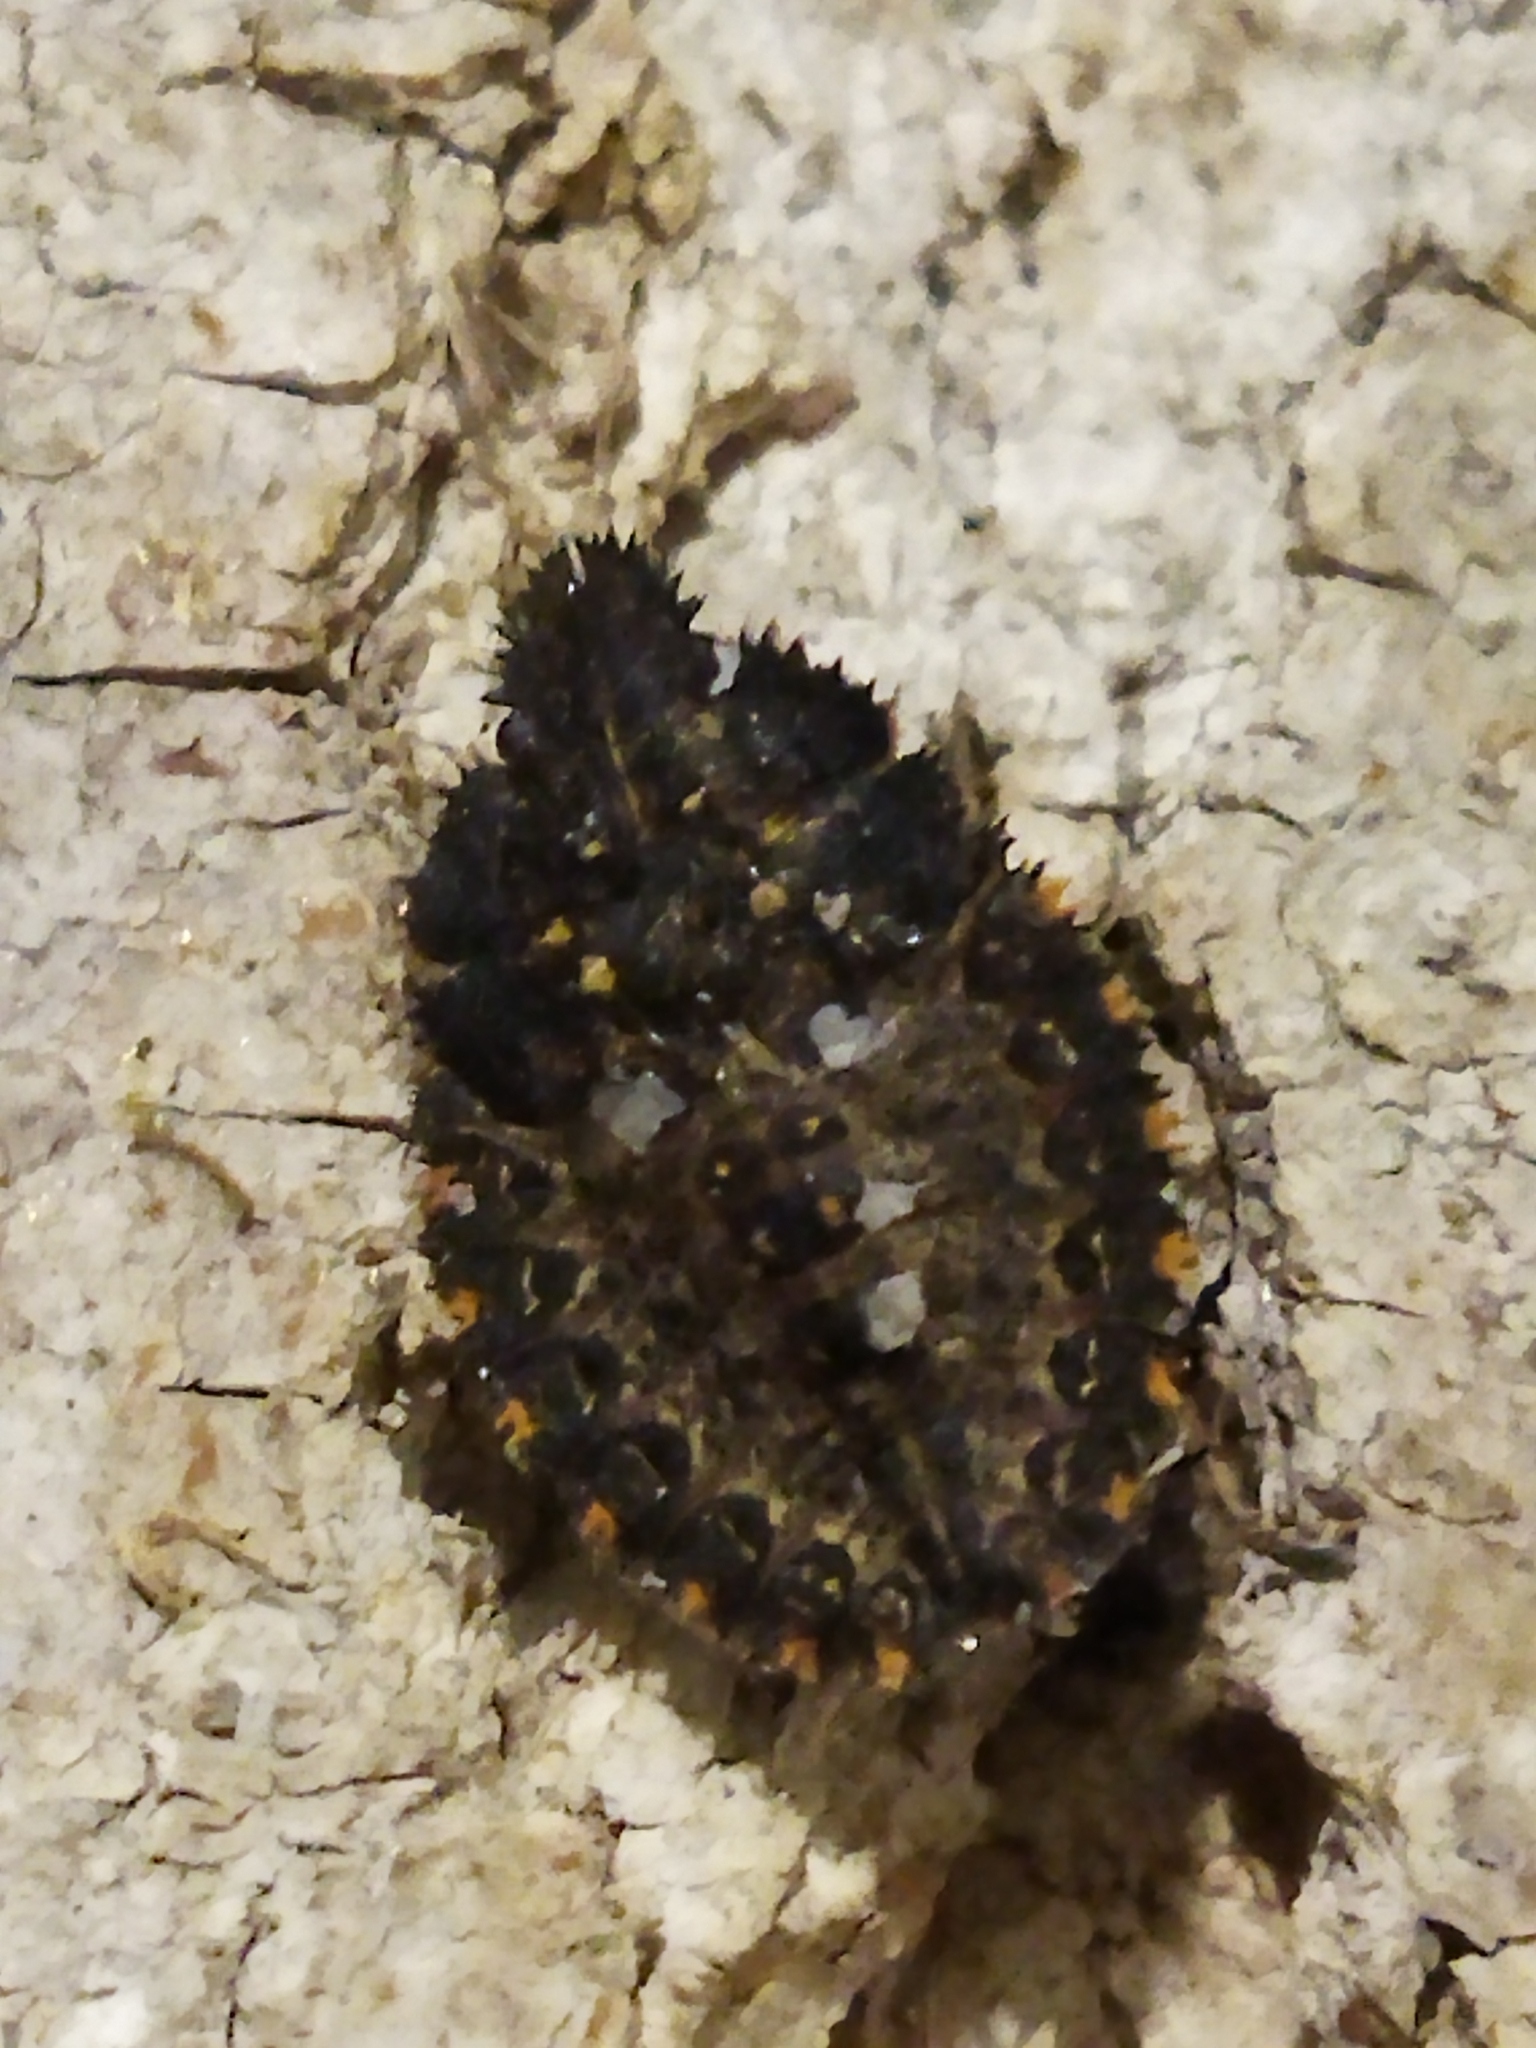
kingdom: Animalia
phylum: Arthropoda
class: Insecta
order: Hemiptera
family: Pentatomidae
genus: Mustha
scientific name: Mustha spinosula
